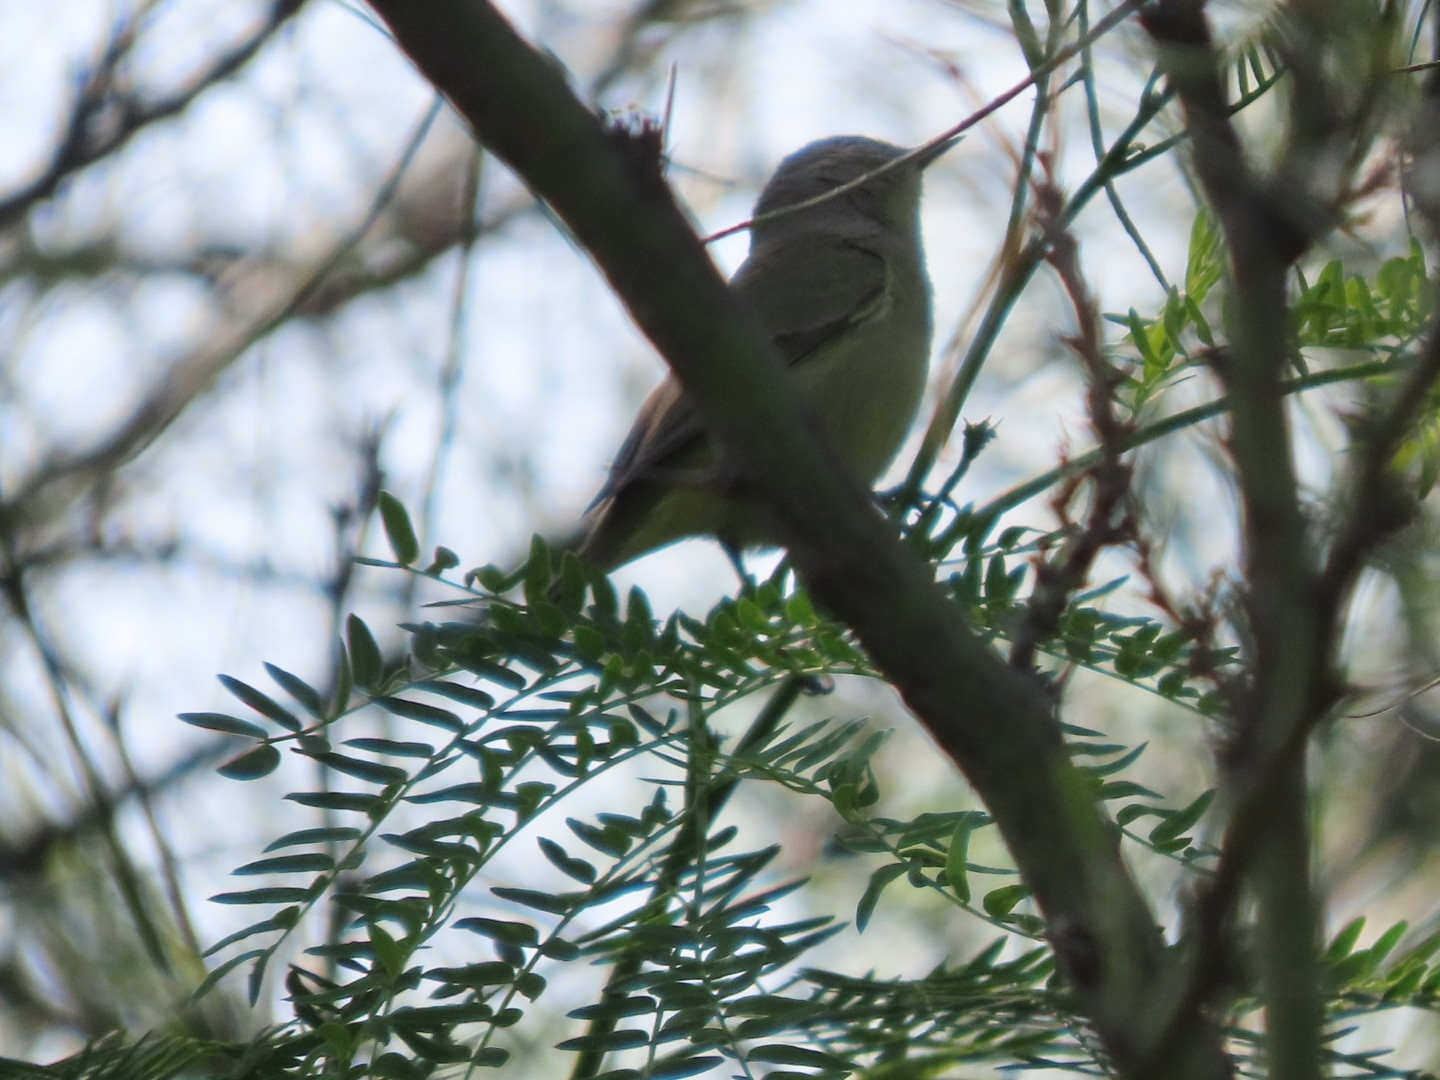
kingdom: Animalia
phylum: Chordata
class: Aves
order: Passeriformes
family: Parulidae
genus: Leiothlypis
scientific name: Leiothlypis celata
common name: Orange-crowned warbler
